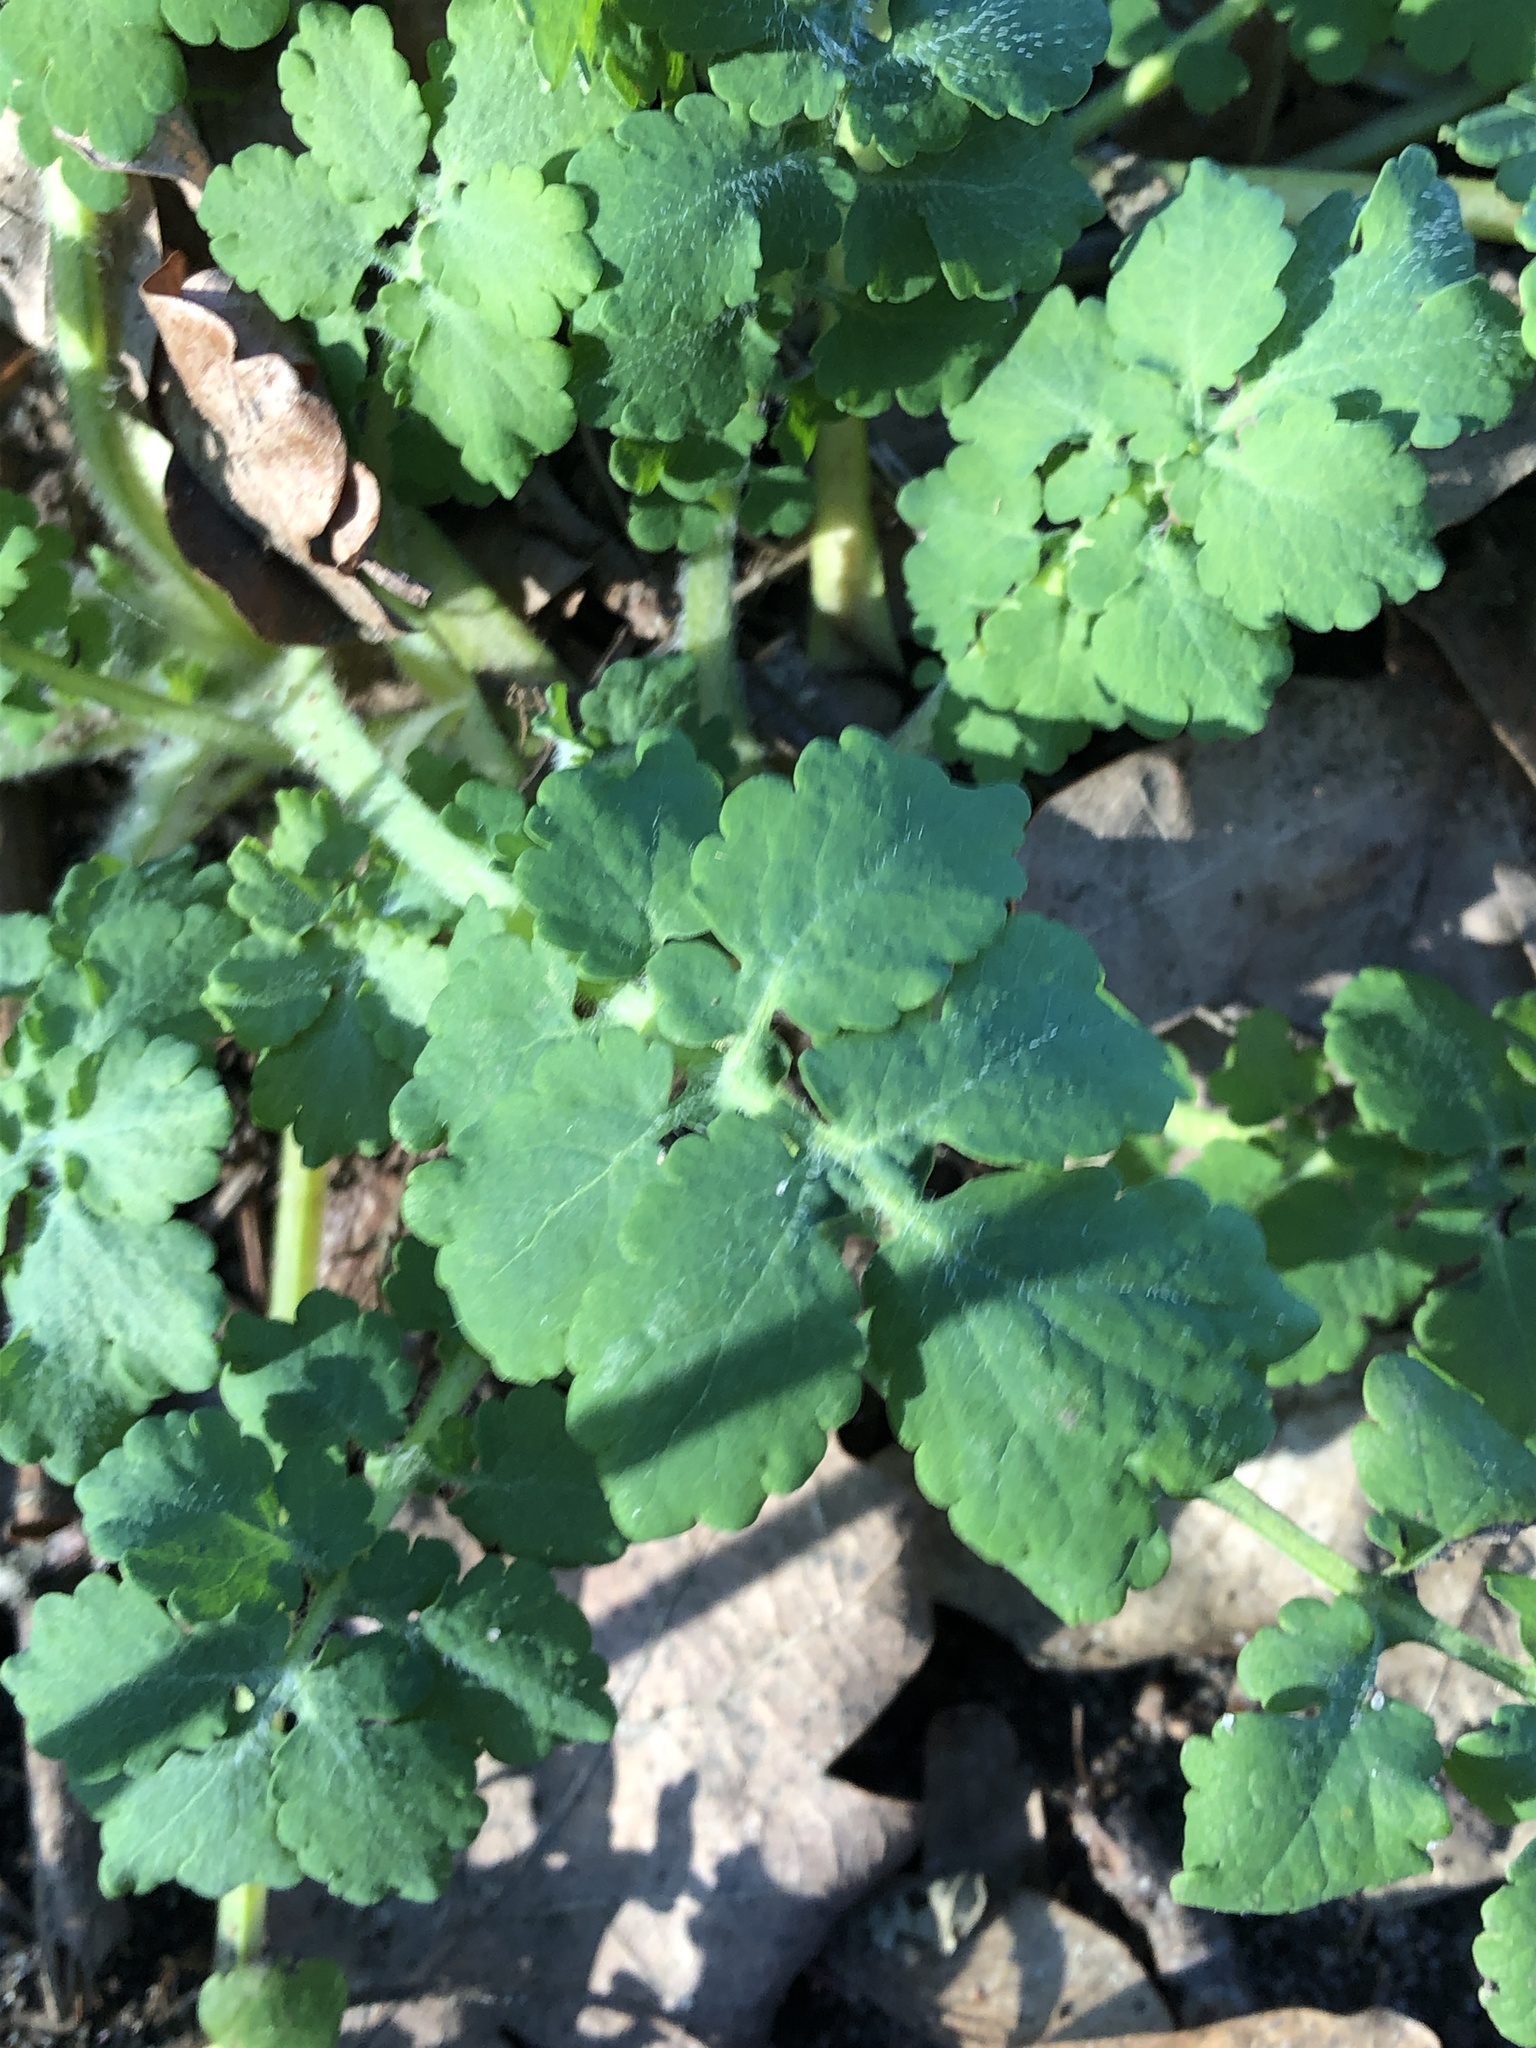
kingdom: Plantae
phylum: Tracheophyta
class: Magnoliopsida
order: Ranunculales
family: Papaveraceae
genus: Chelidonium
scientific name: Chelidonium majus
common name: Greater celandine
